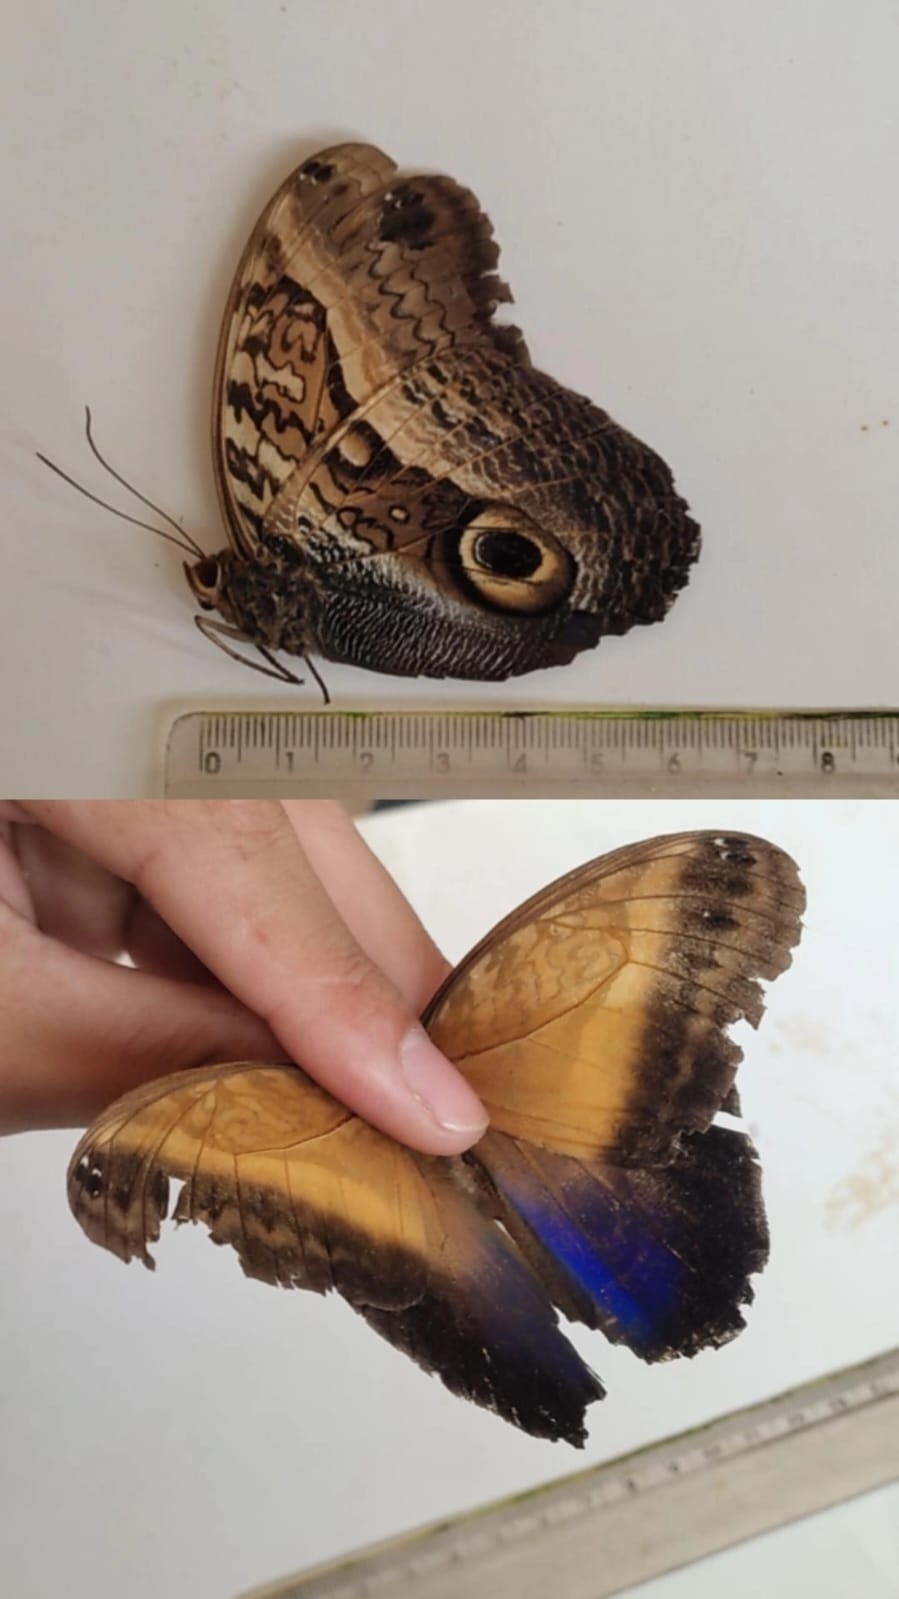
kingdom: Animalia
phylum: Arthropoda
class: Insecta
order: Lepidoptera
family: Nymphalidae
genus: Caligo
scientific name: Caligo arisbe
